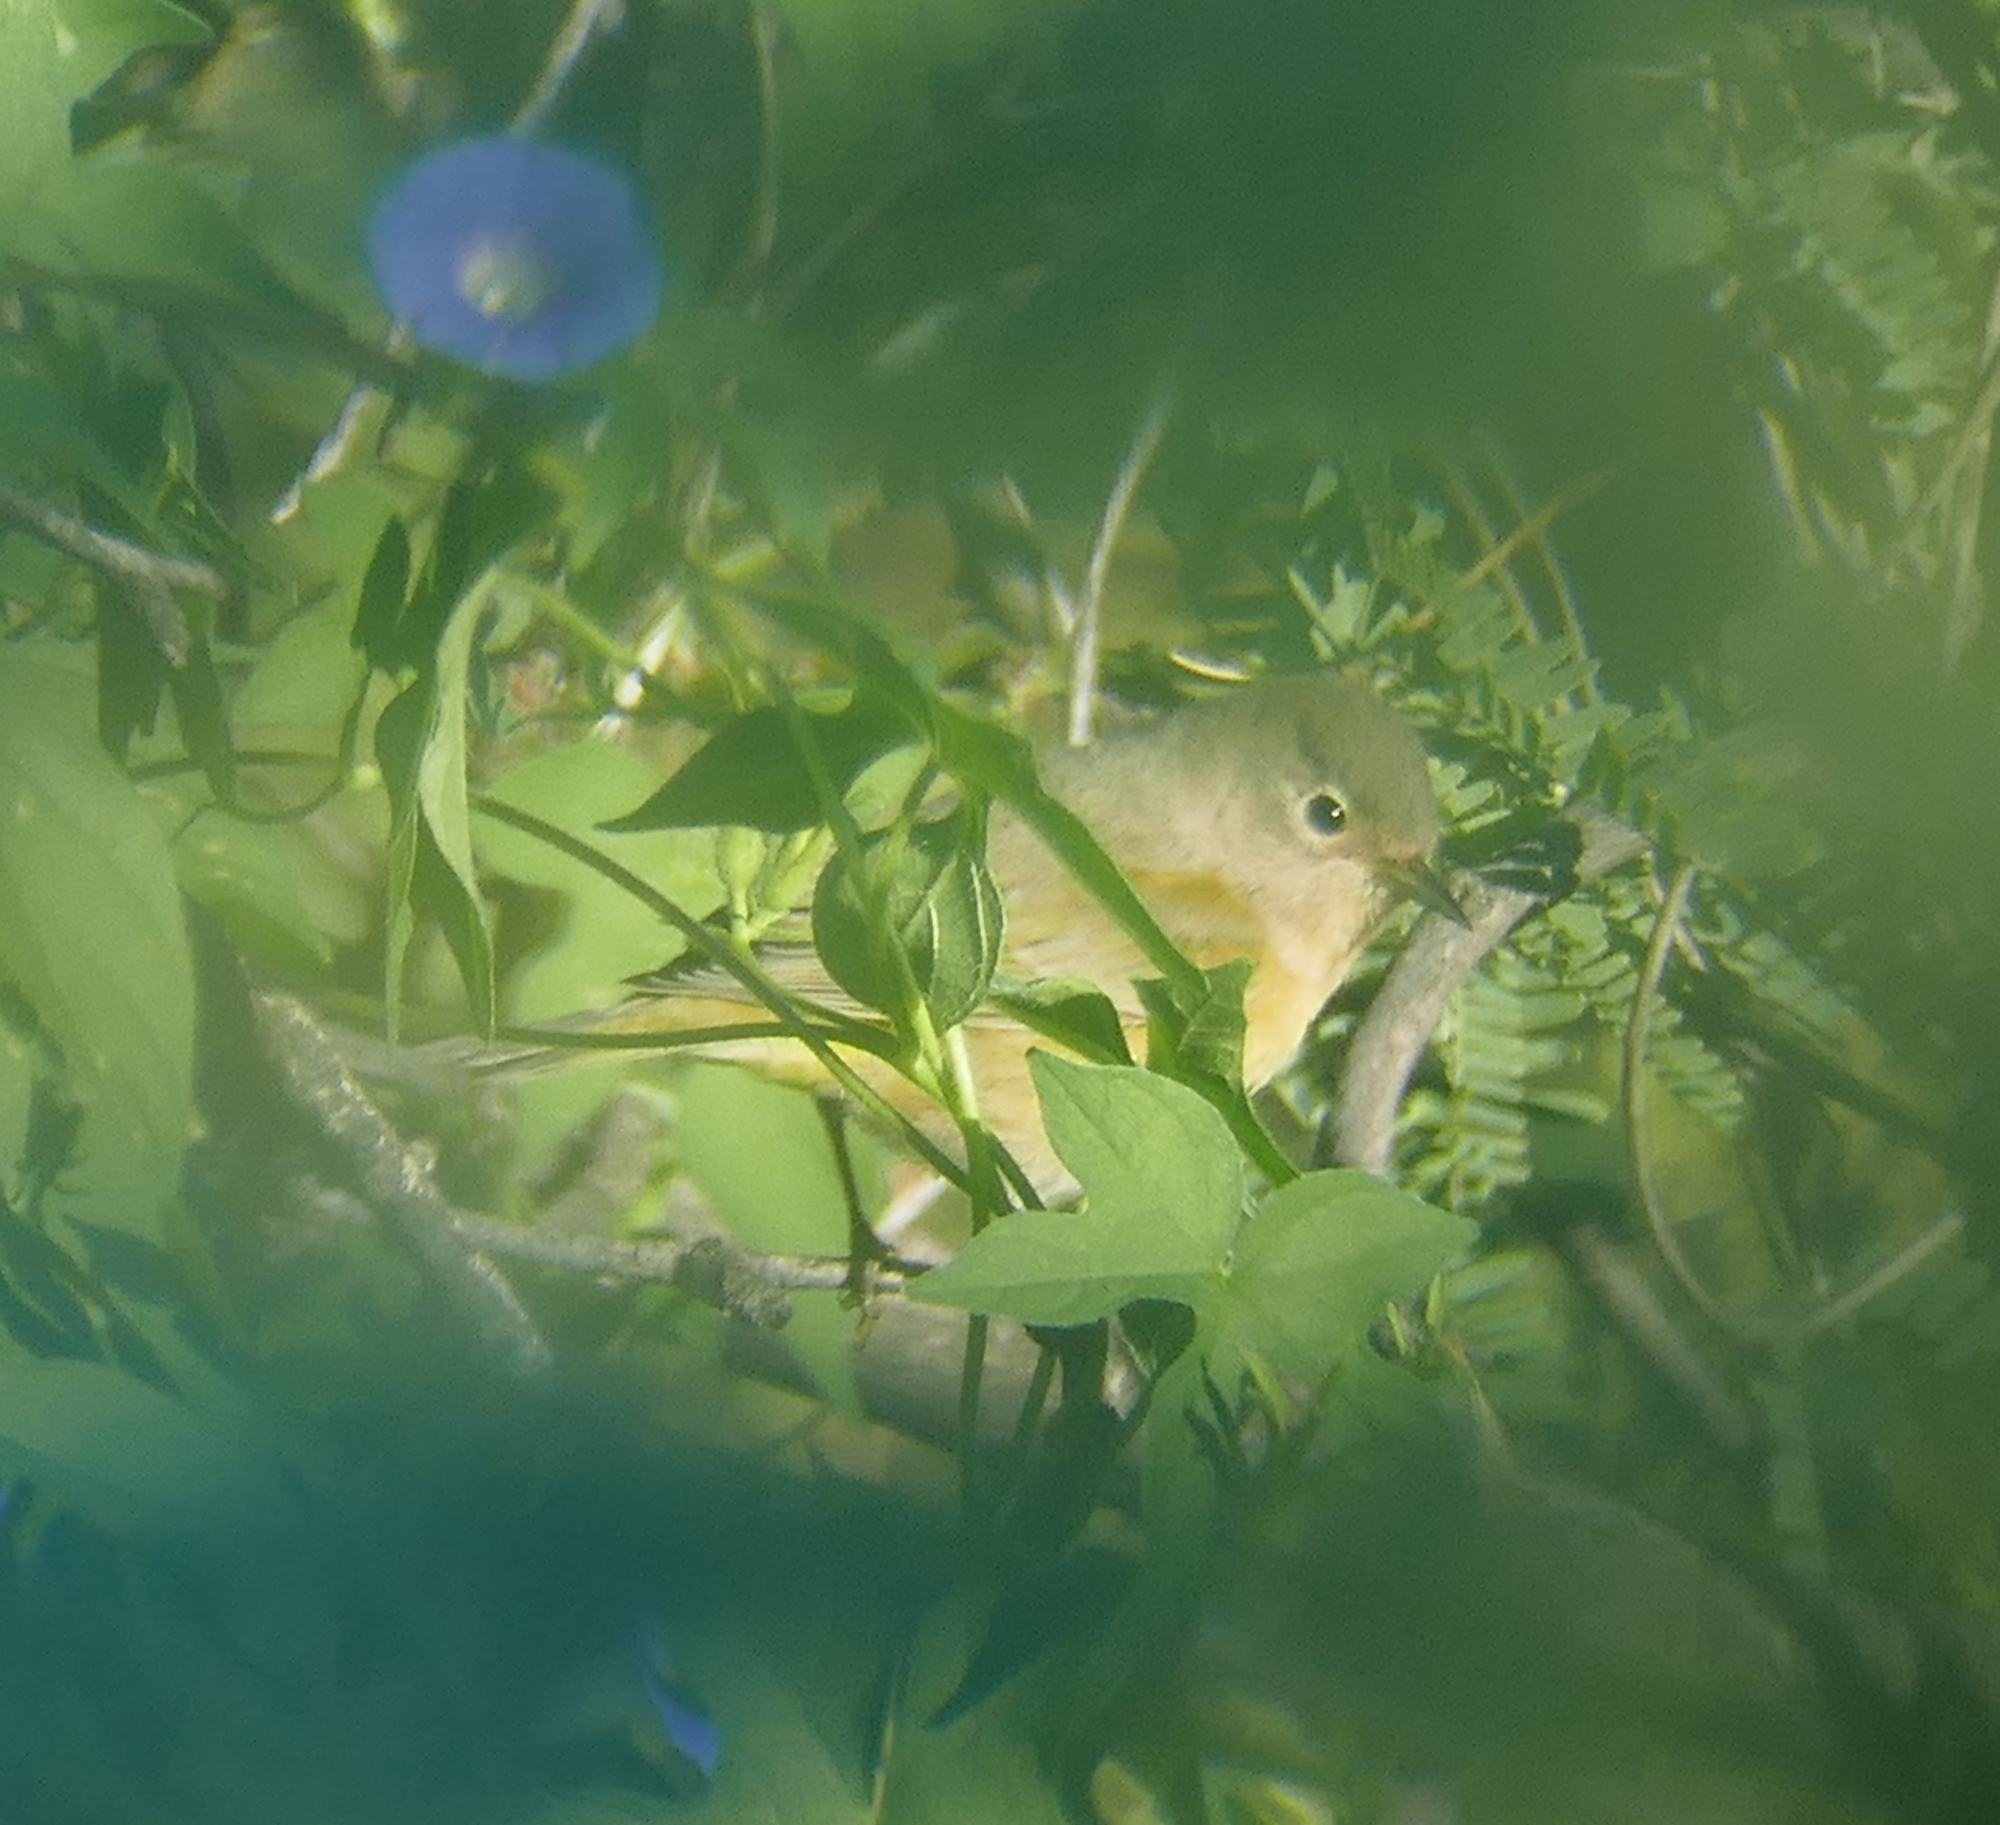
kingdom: Animalia
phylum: Chordata
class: Aves
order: Passeriformes
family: Parulidae
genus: Leiothlypis
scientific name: Leiothlypis ruficapilla
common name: Nashville warbler
